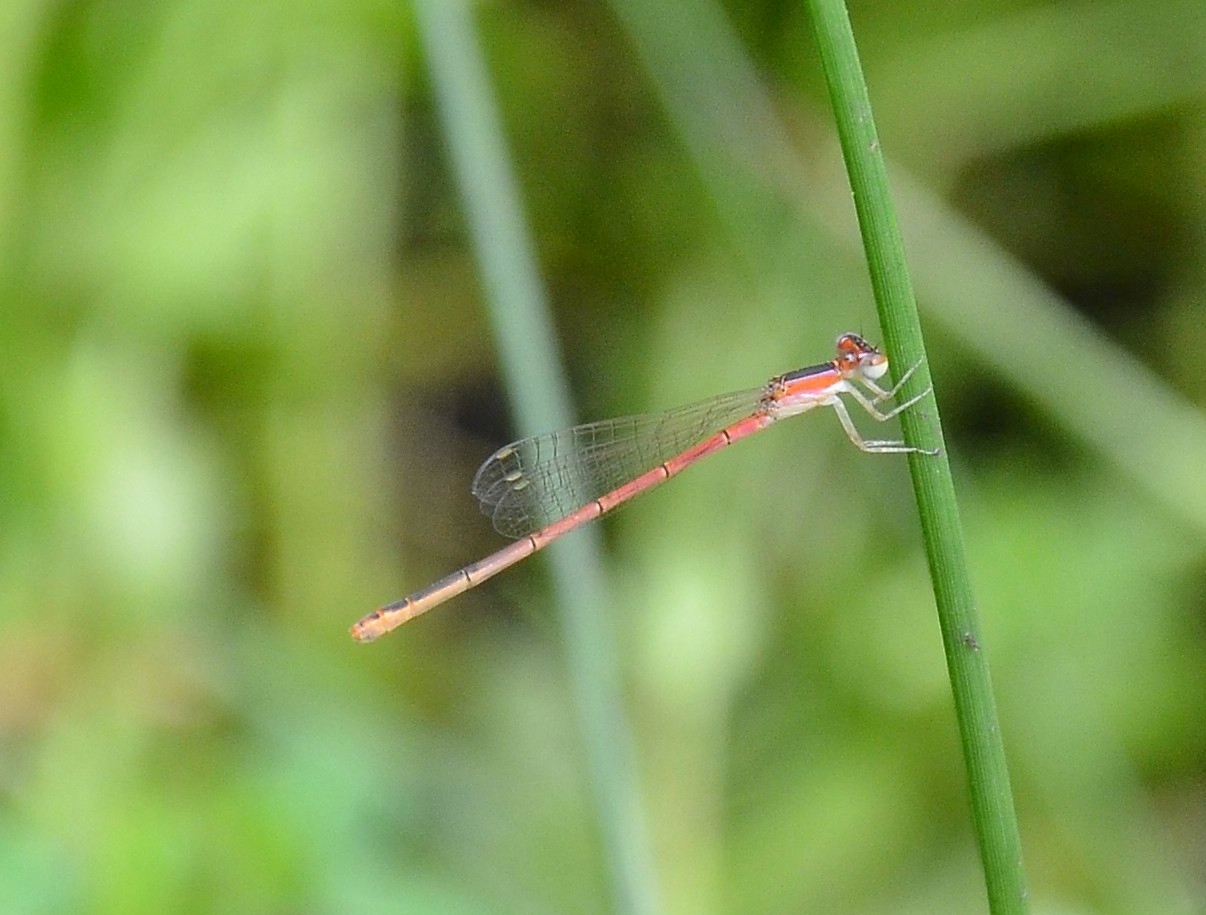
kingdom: Animalia
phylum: Arthropoda
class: Insecta
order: Odonata
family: Coenagrionidae
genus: Agriocnemis
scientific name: Agriocnemis pygmaea
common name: Pygmy wisp
